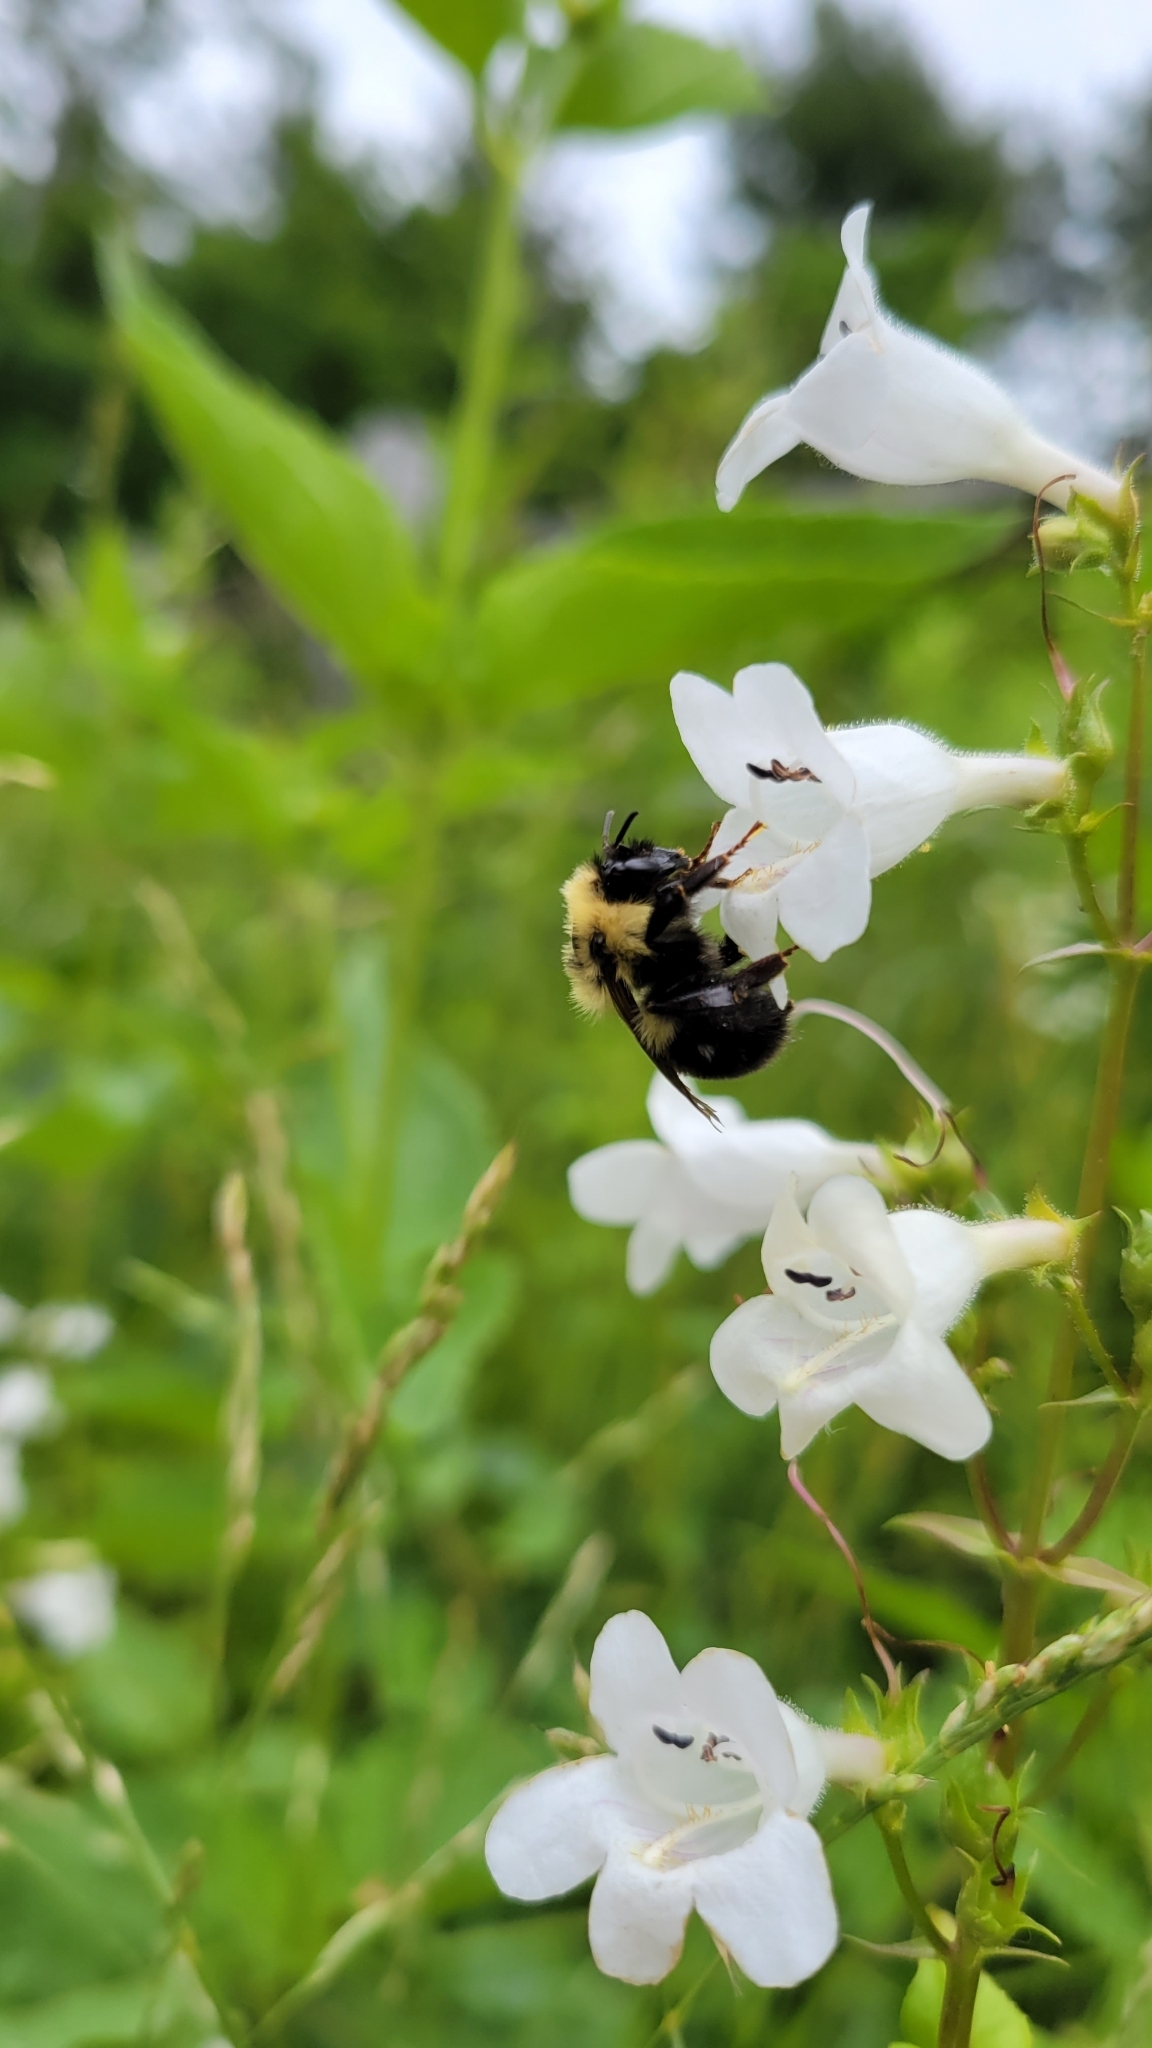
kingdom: Animalia
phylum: Arthropoda
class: Insecta
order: Hymenoptera
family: Apidae
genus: Bombus
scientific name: Bombus bimaculatus
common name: Two-spotted bumble bee
